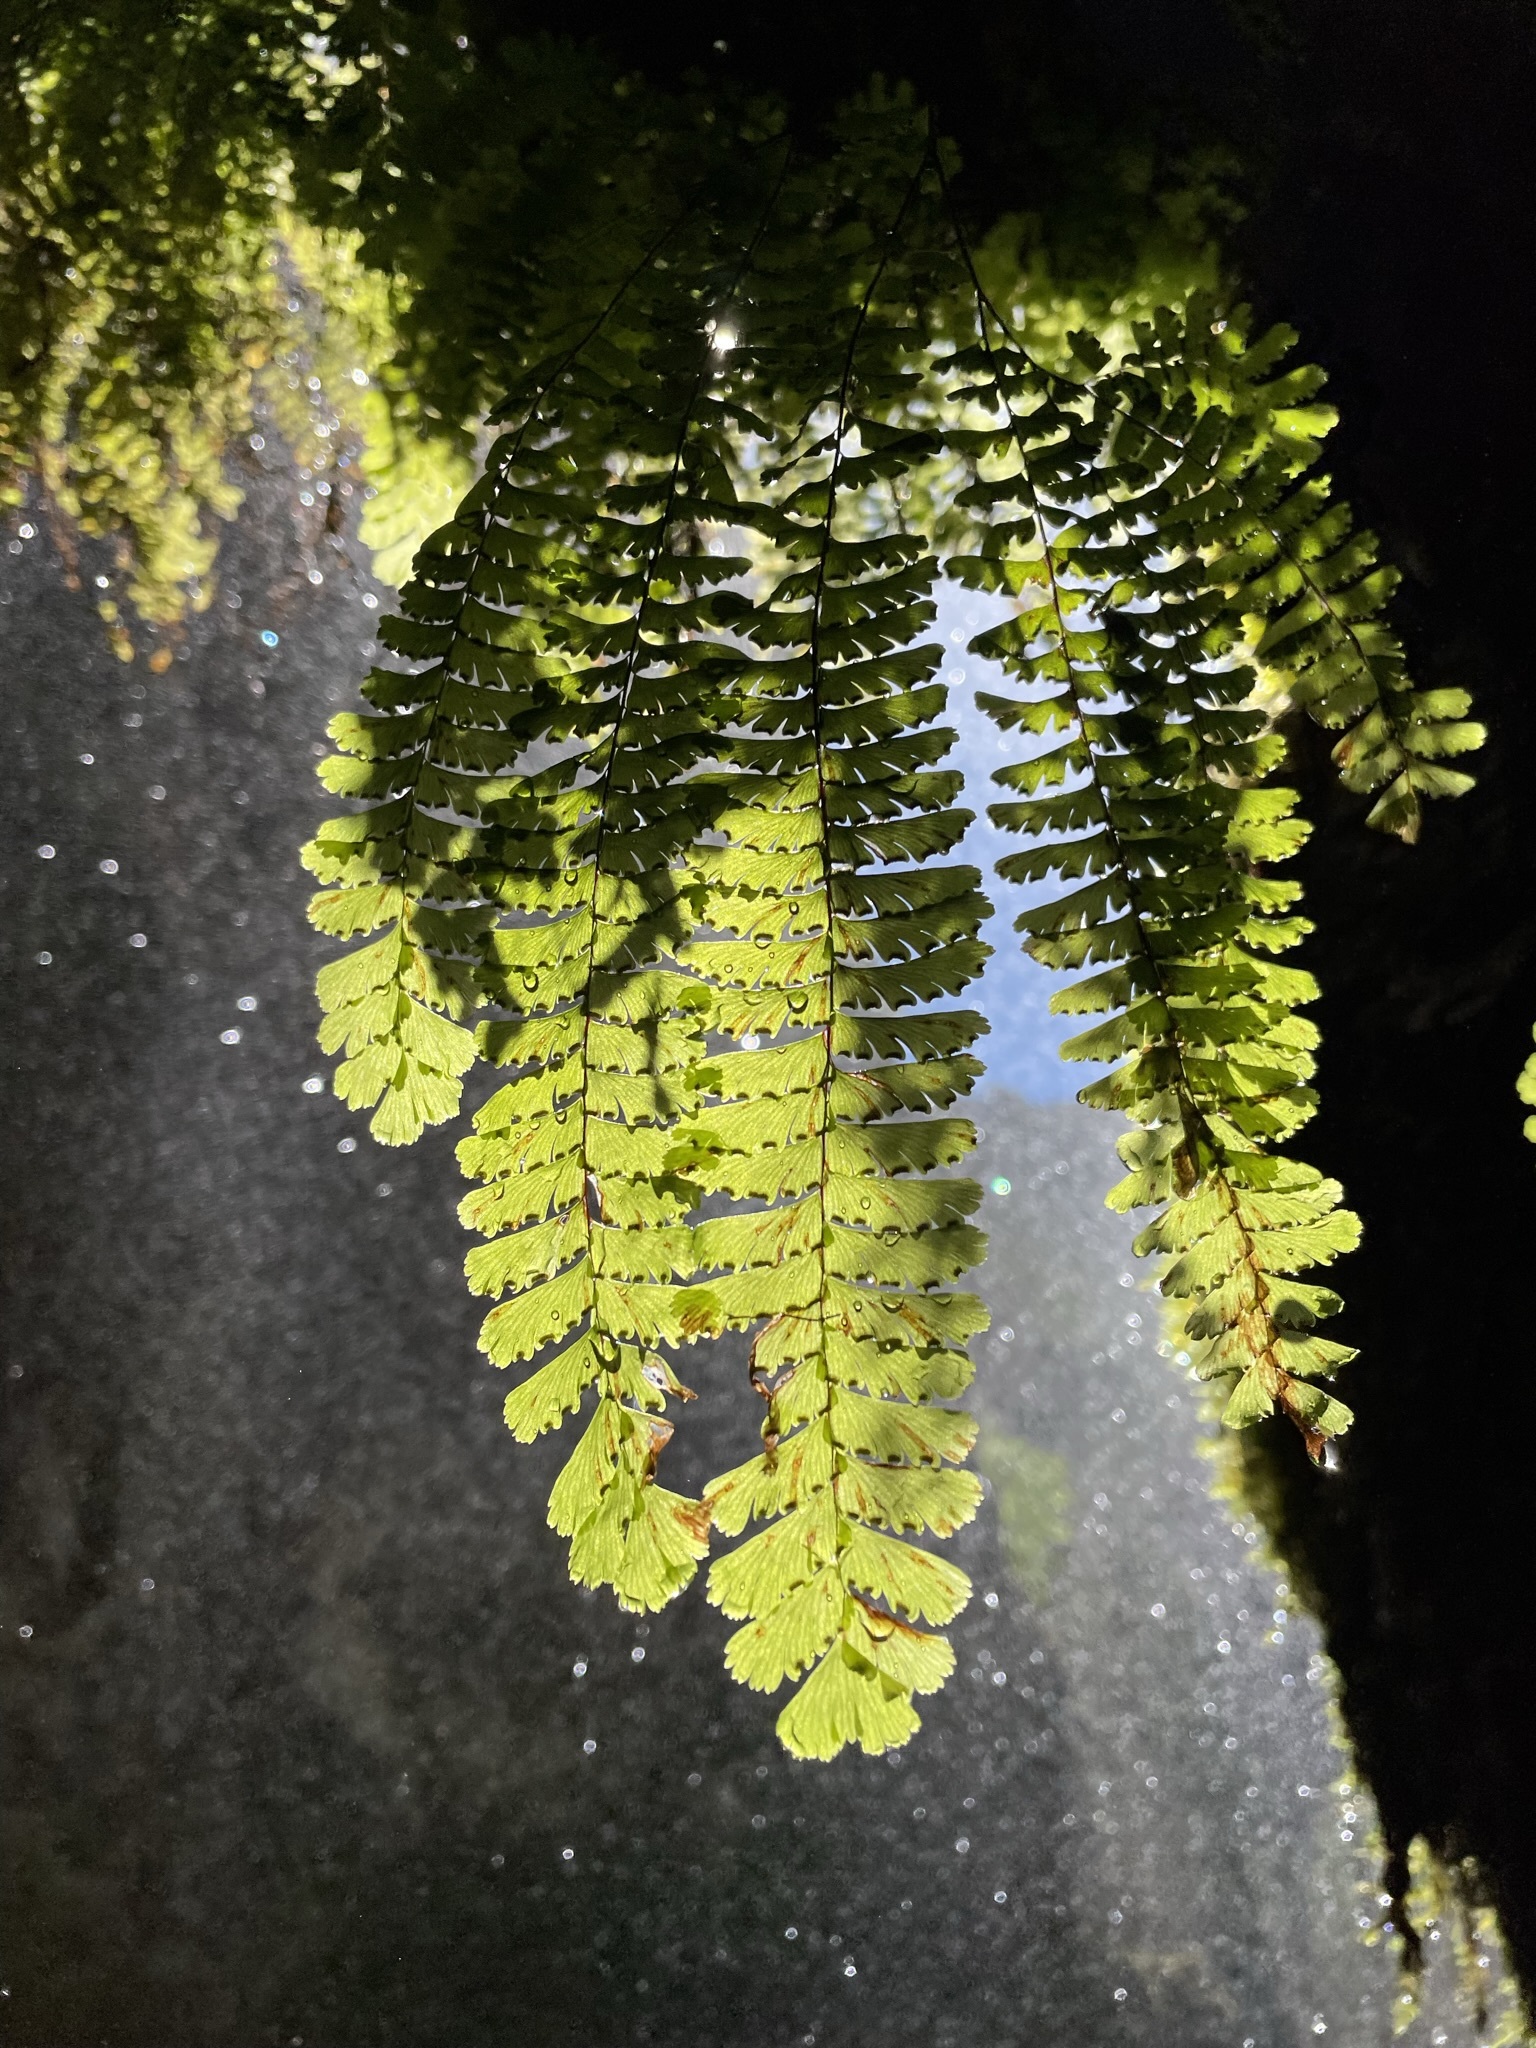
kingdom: Plantae
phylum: Tracheophyta
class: Polypodiopsida
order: Polypodiales
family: Pteridaceae
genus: Adiantum
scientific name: Adiantum aleuticum
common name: Aleutian maidenhair fern
